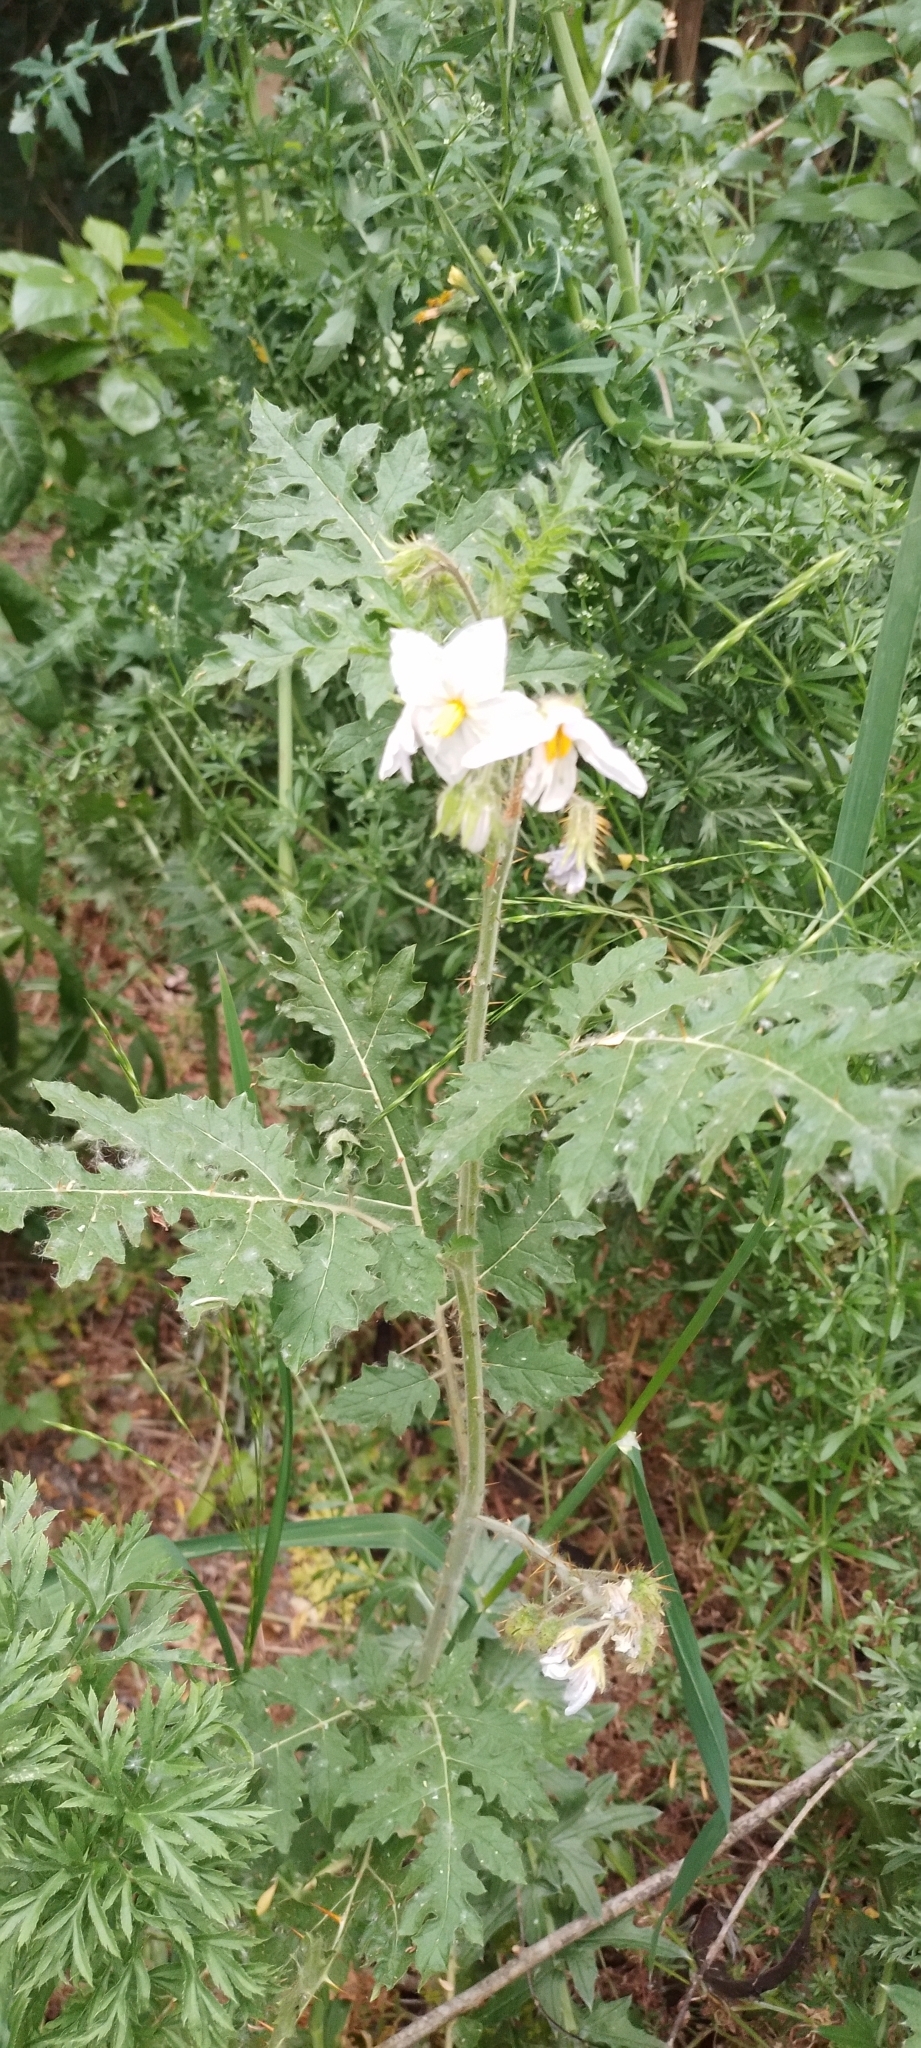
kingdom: Plantae
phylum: Tracheophyta
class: Magnoliopsida
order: Solanales
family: Solanaceae
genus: Solanum
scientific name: Solanum sisymbriifolium
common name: Red buffalo-bur
